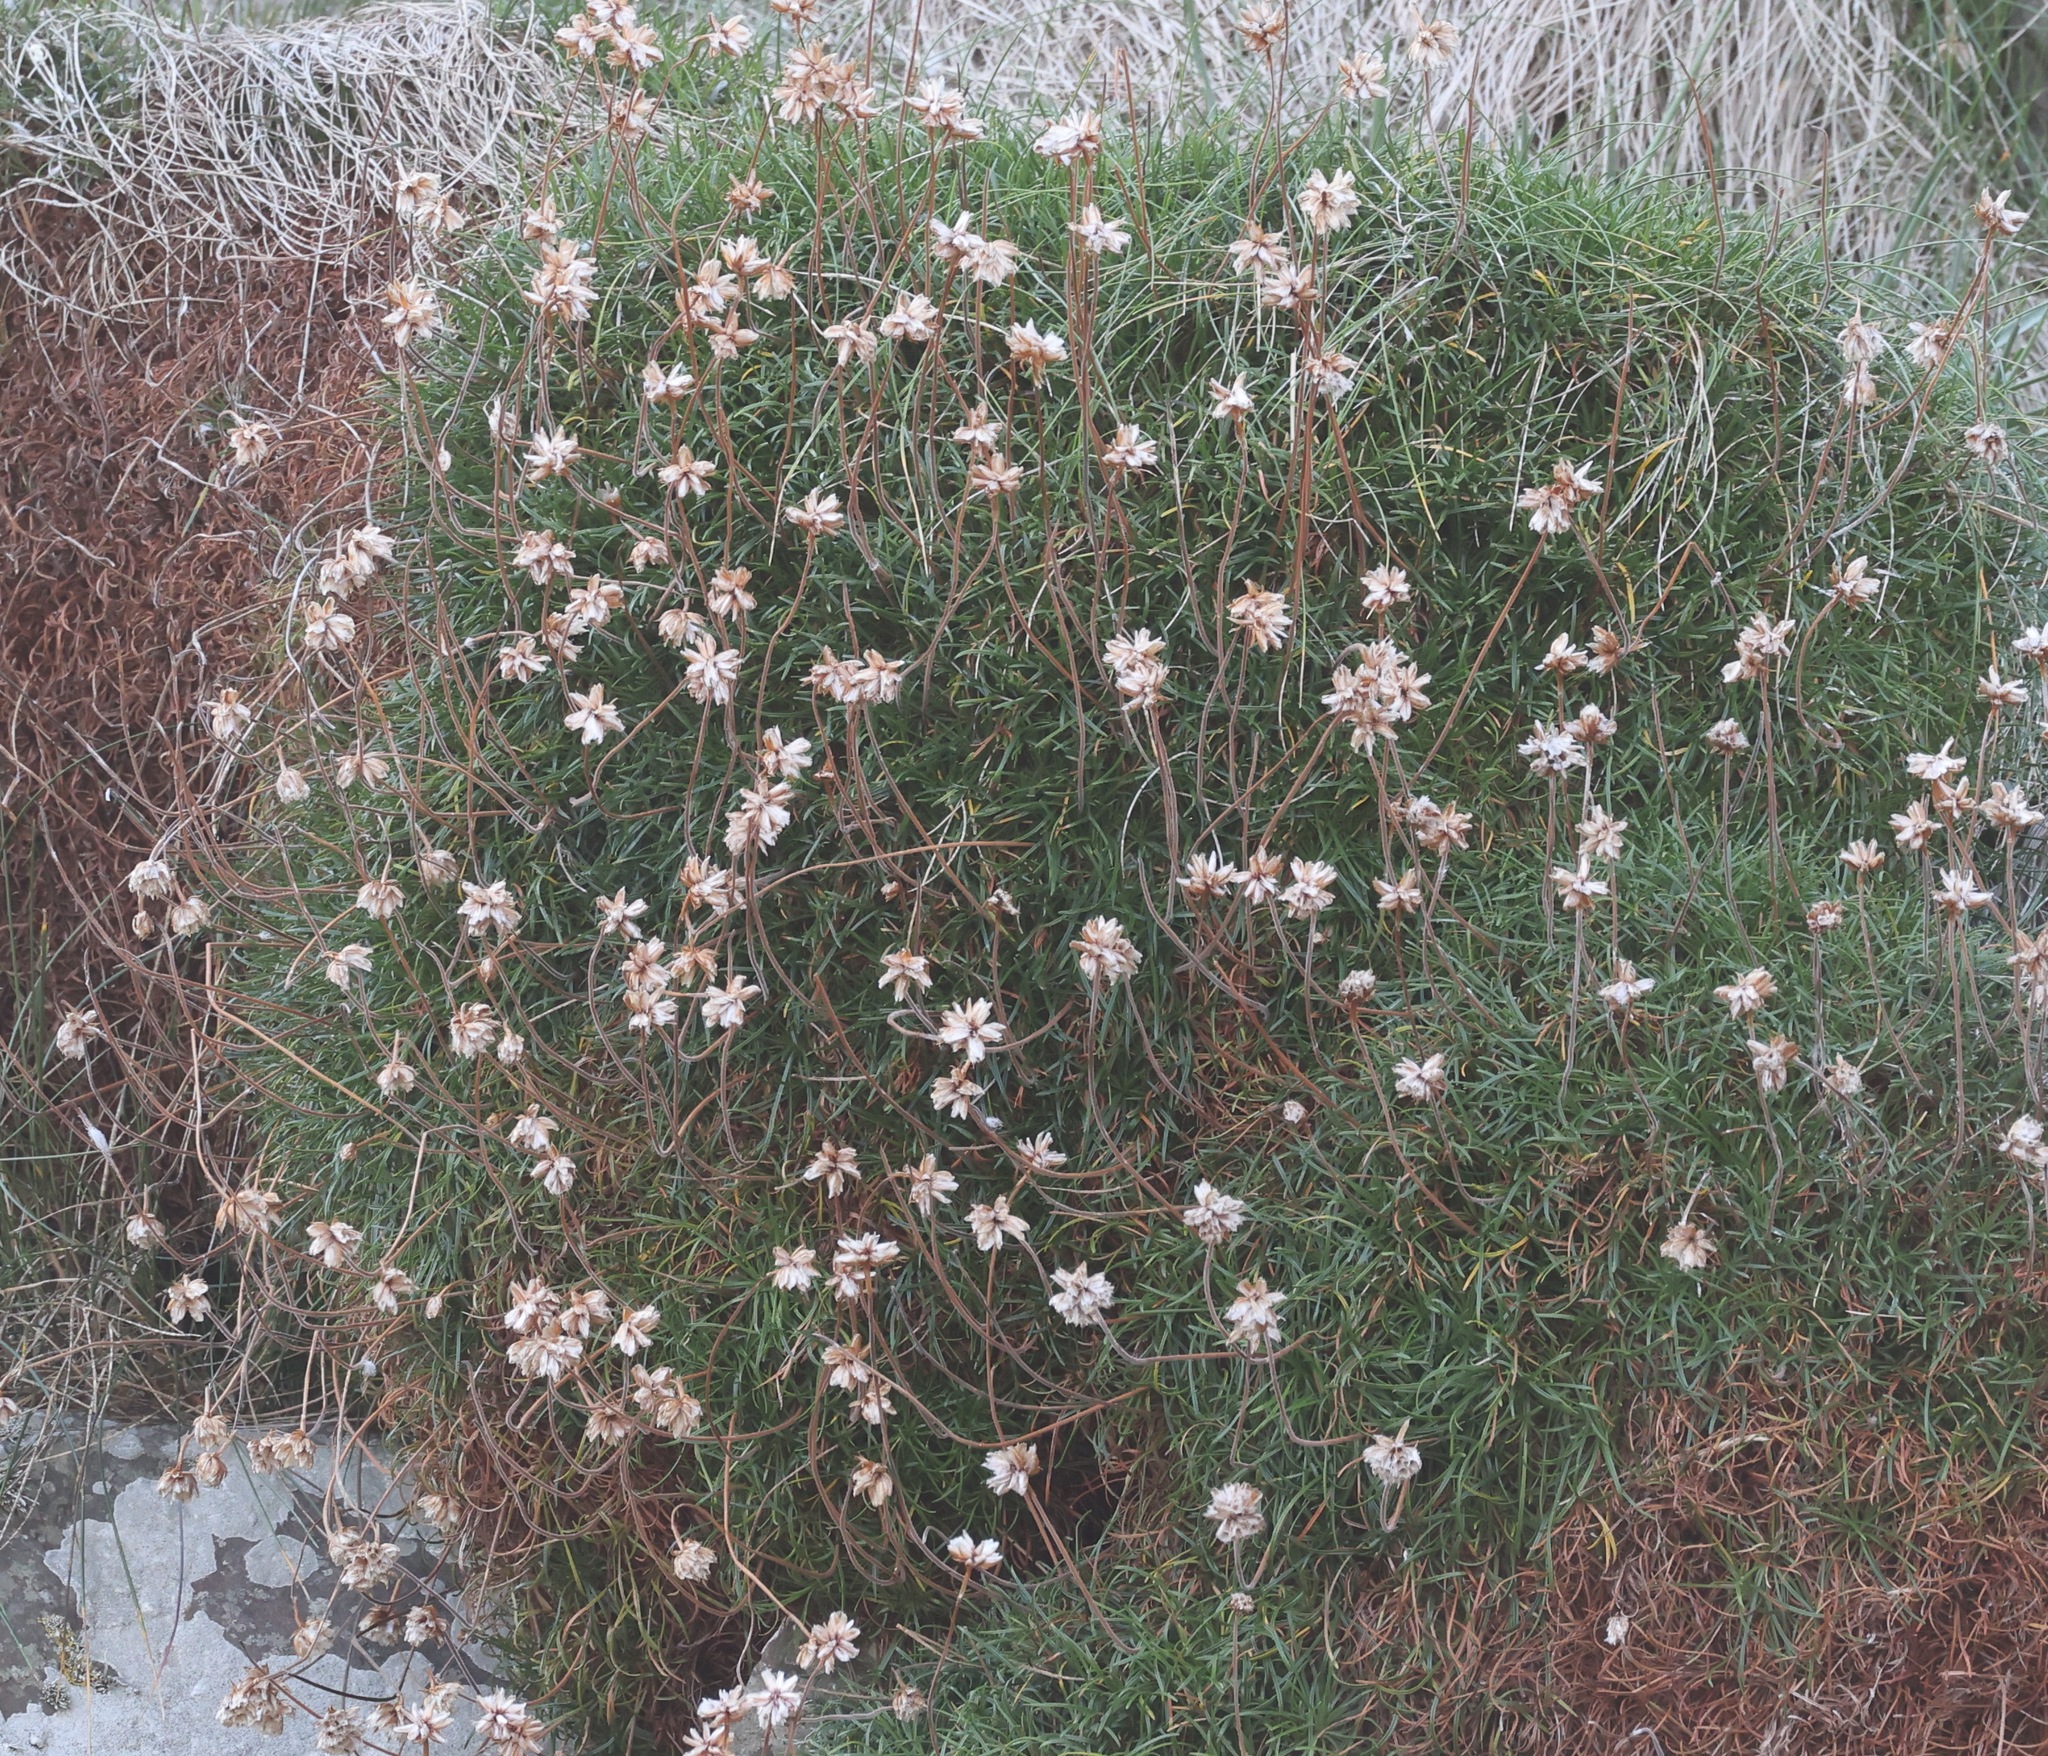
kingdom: Plantae
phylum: Tracheophyta
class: Magnoliopsida
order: Caryophyllales
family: Plumbaginaceae
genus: Armeria
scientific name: Armeria maritima
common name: Thrift
